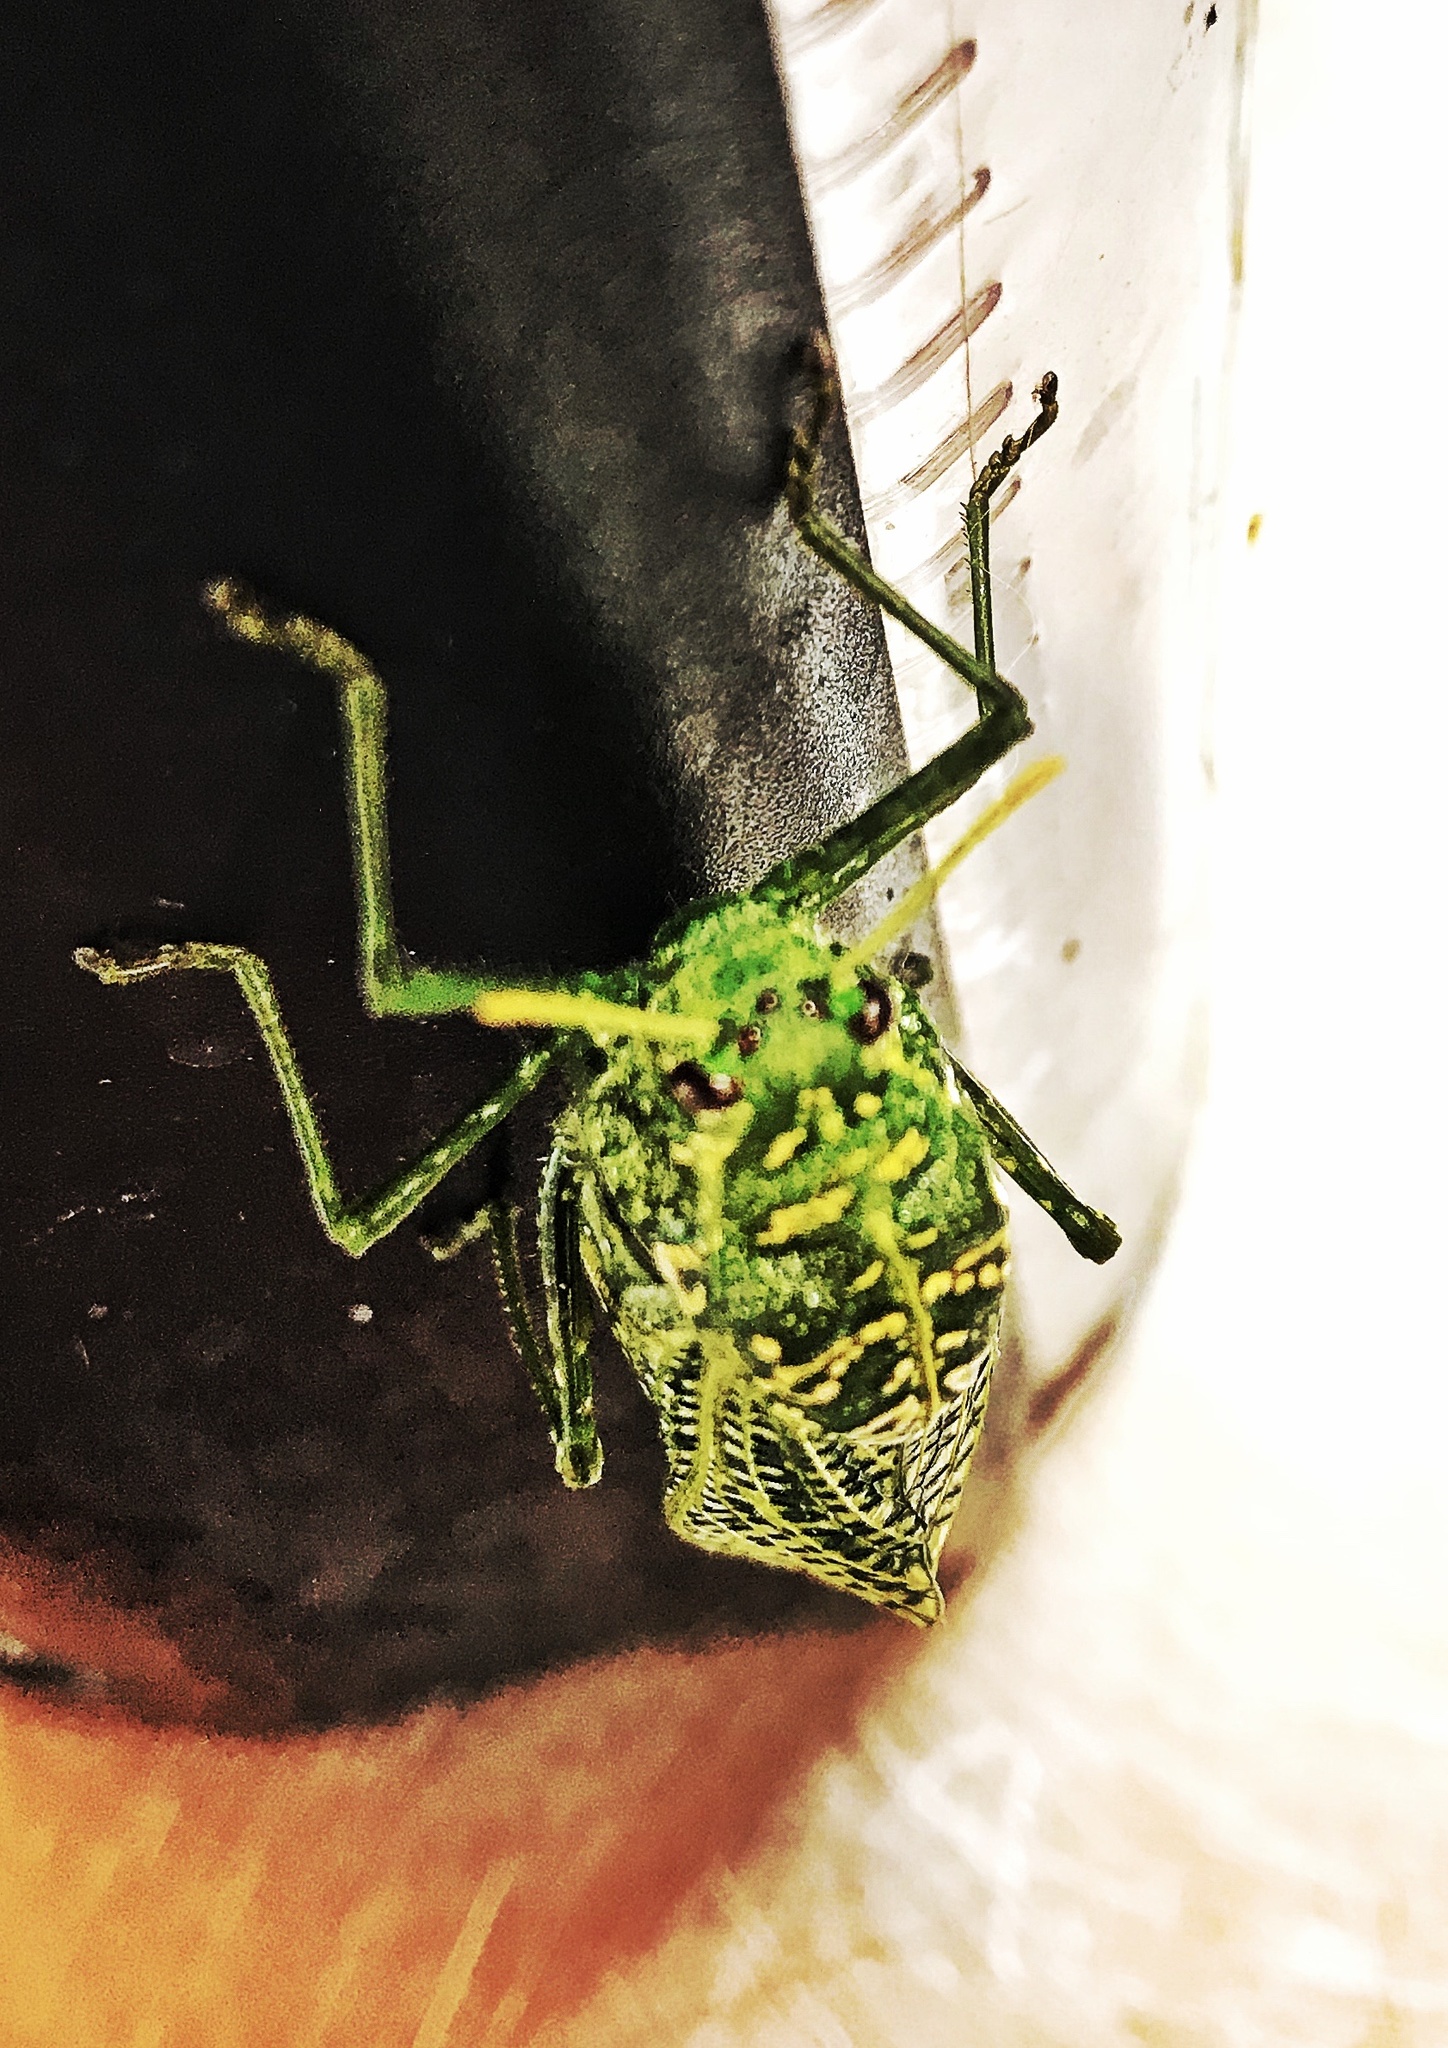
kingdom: Animalia
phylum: Arthropoda
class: Insecta
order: Orthoptera
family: Pneumoridae
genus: Physemacris
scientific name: Physemacris variolosa
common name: Silver spotted bladder grasshopper
